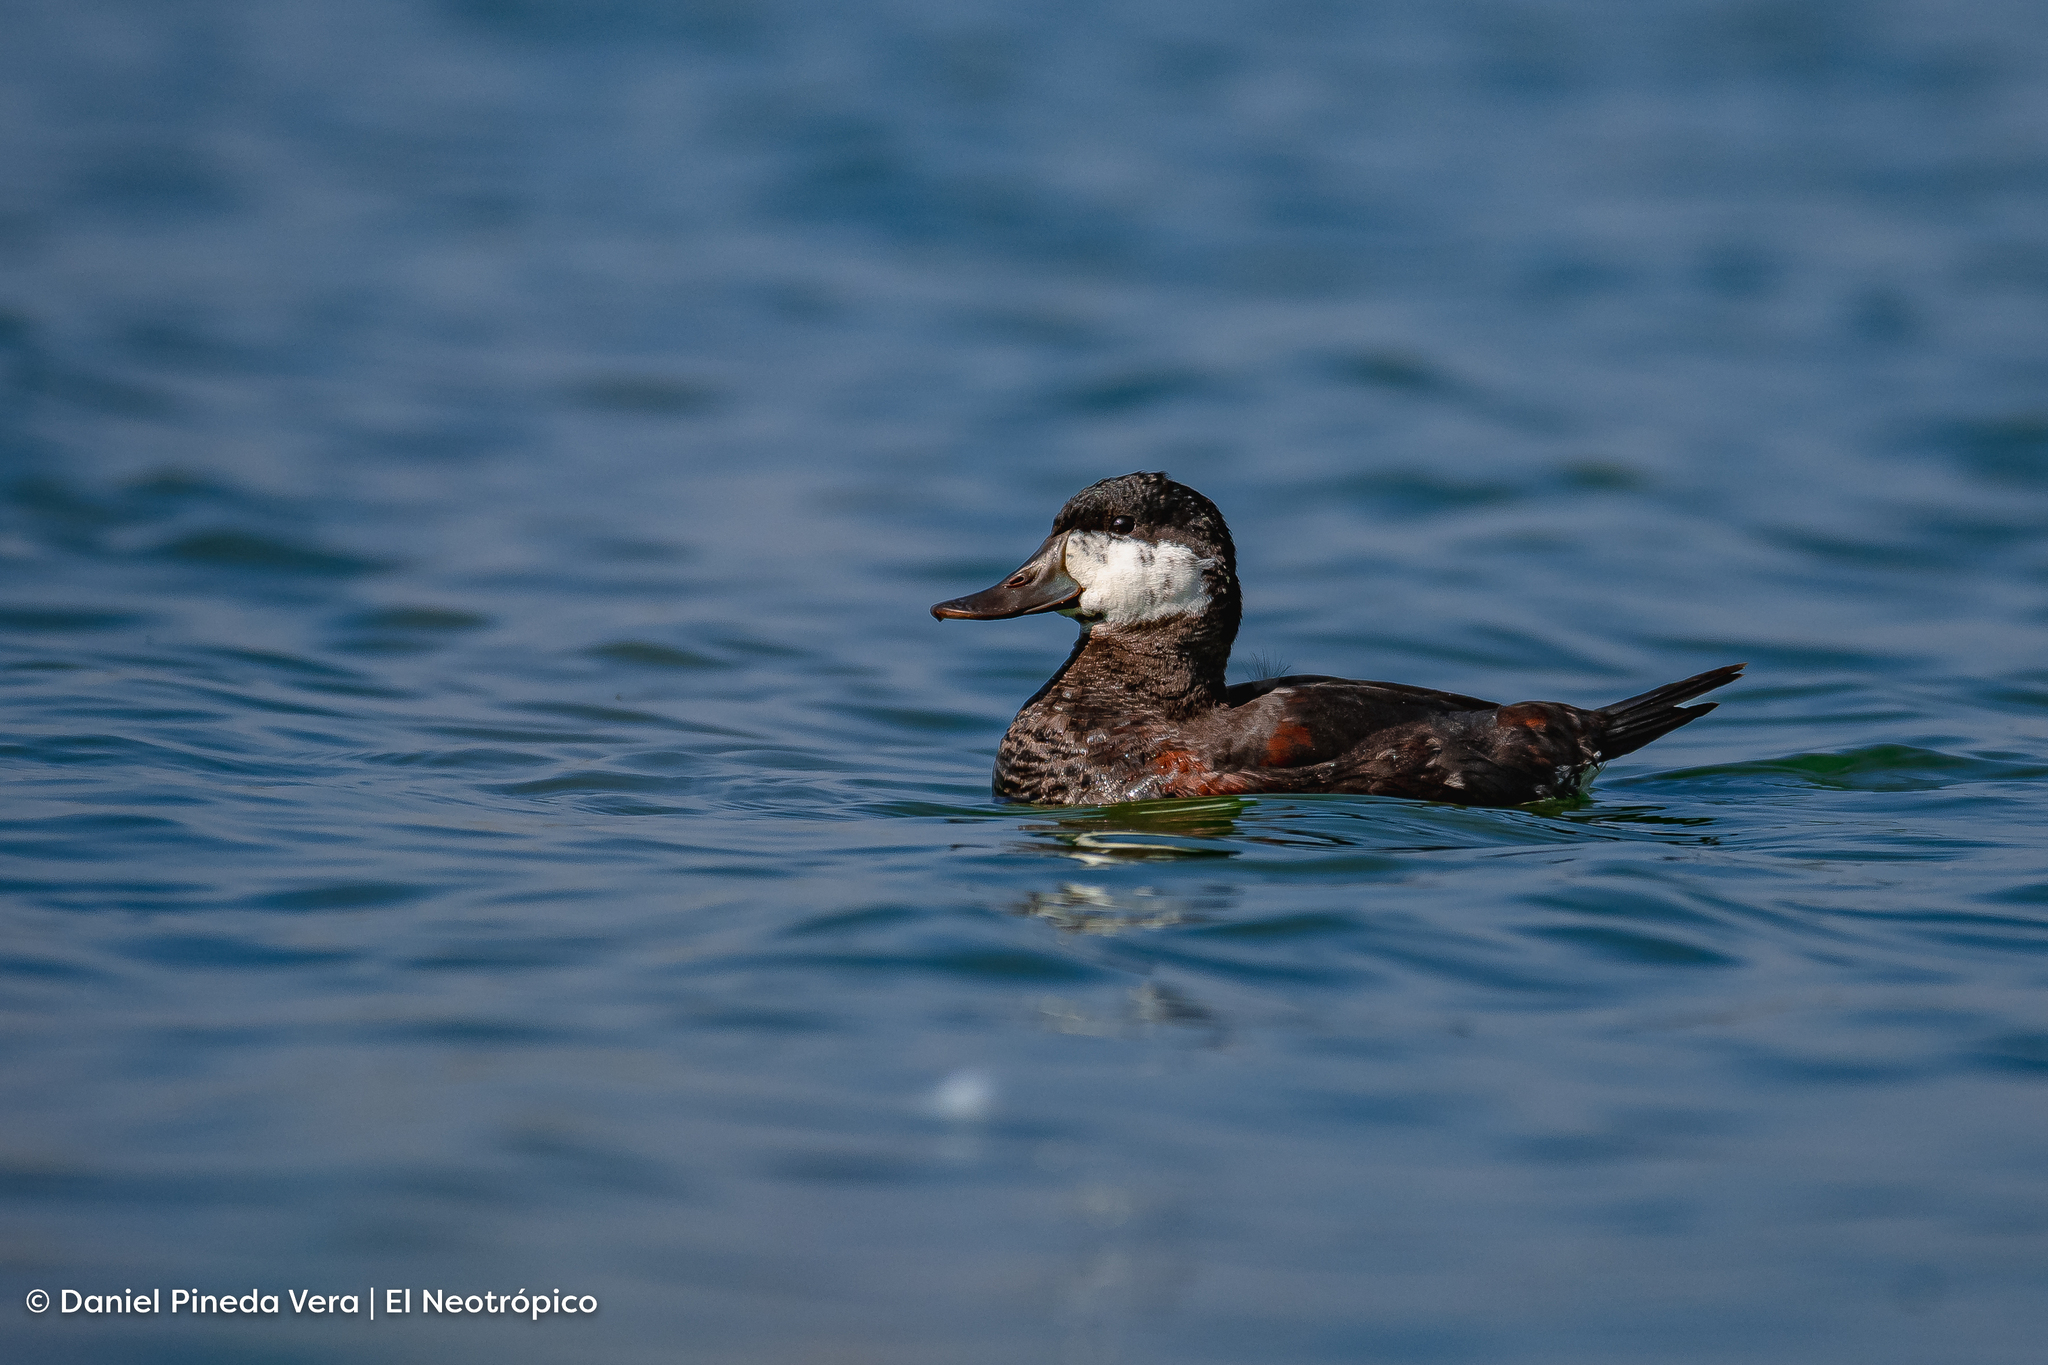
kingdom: Animalia
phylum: Chordata
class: Aves
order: Anseriformes
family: Anatidae
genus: Oxyura
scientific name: Oxyura jamaicensis
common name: Ruddy duck
